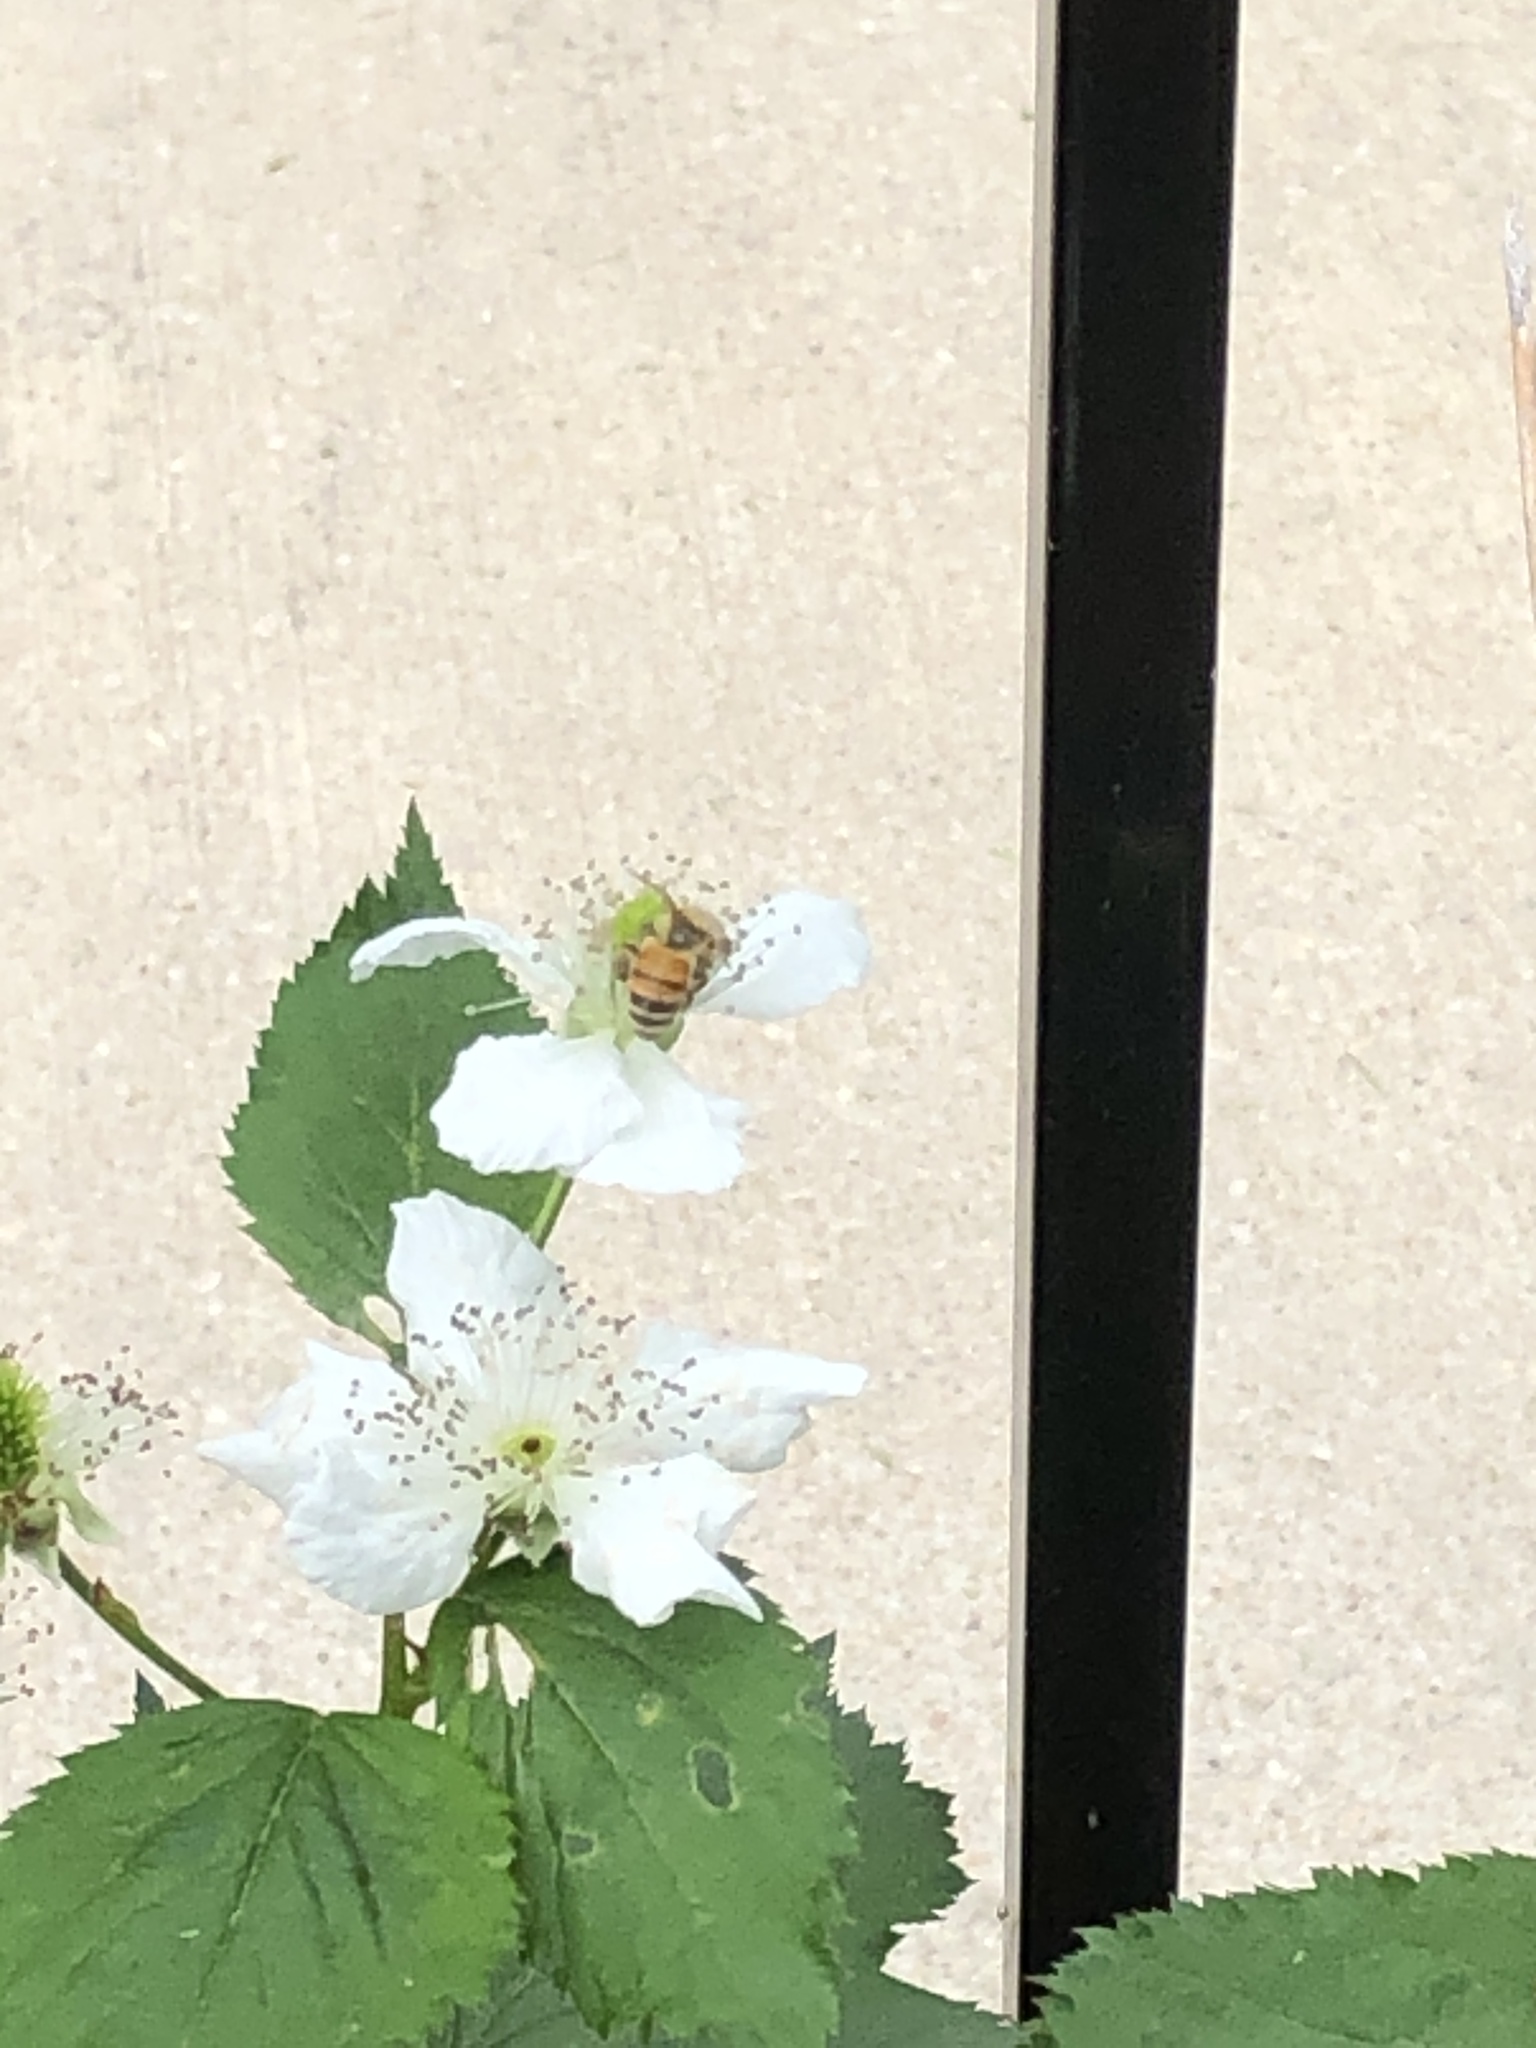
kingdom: Animalia
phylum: Arthropoda
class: Insecta
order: Hymenoptera
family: Apidae
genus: Apis
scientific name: Apis mellifera
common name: Honey bee
